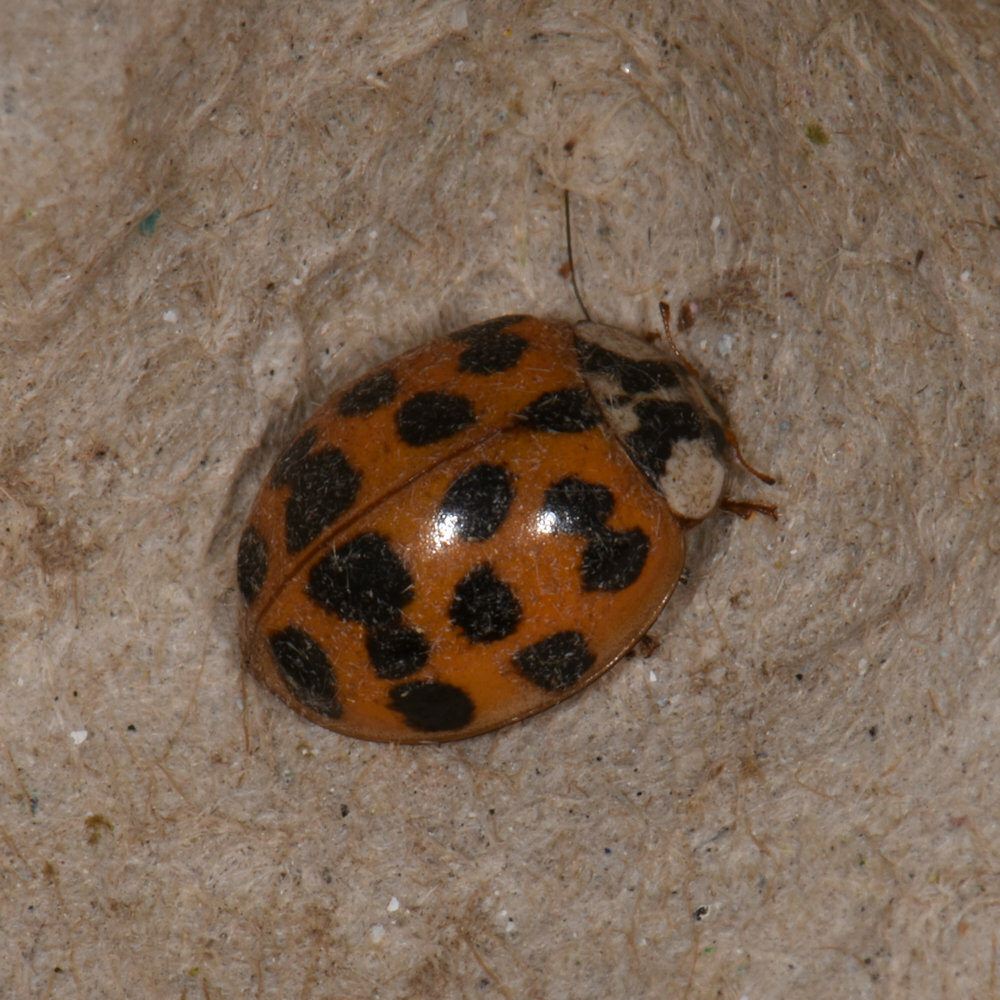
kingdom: Animalia
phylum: Arthropoda
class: Insecta
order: Coleoptera
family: Coccinellidae
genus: Harmonia
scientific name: Harmonia axyridis
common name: Harlequin ladybird
